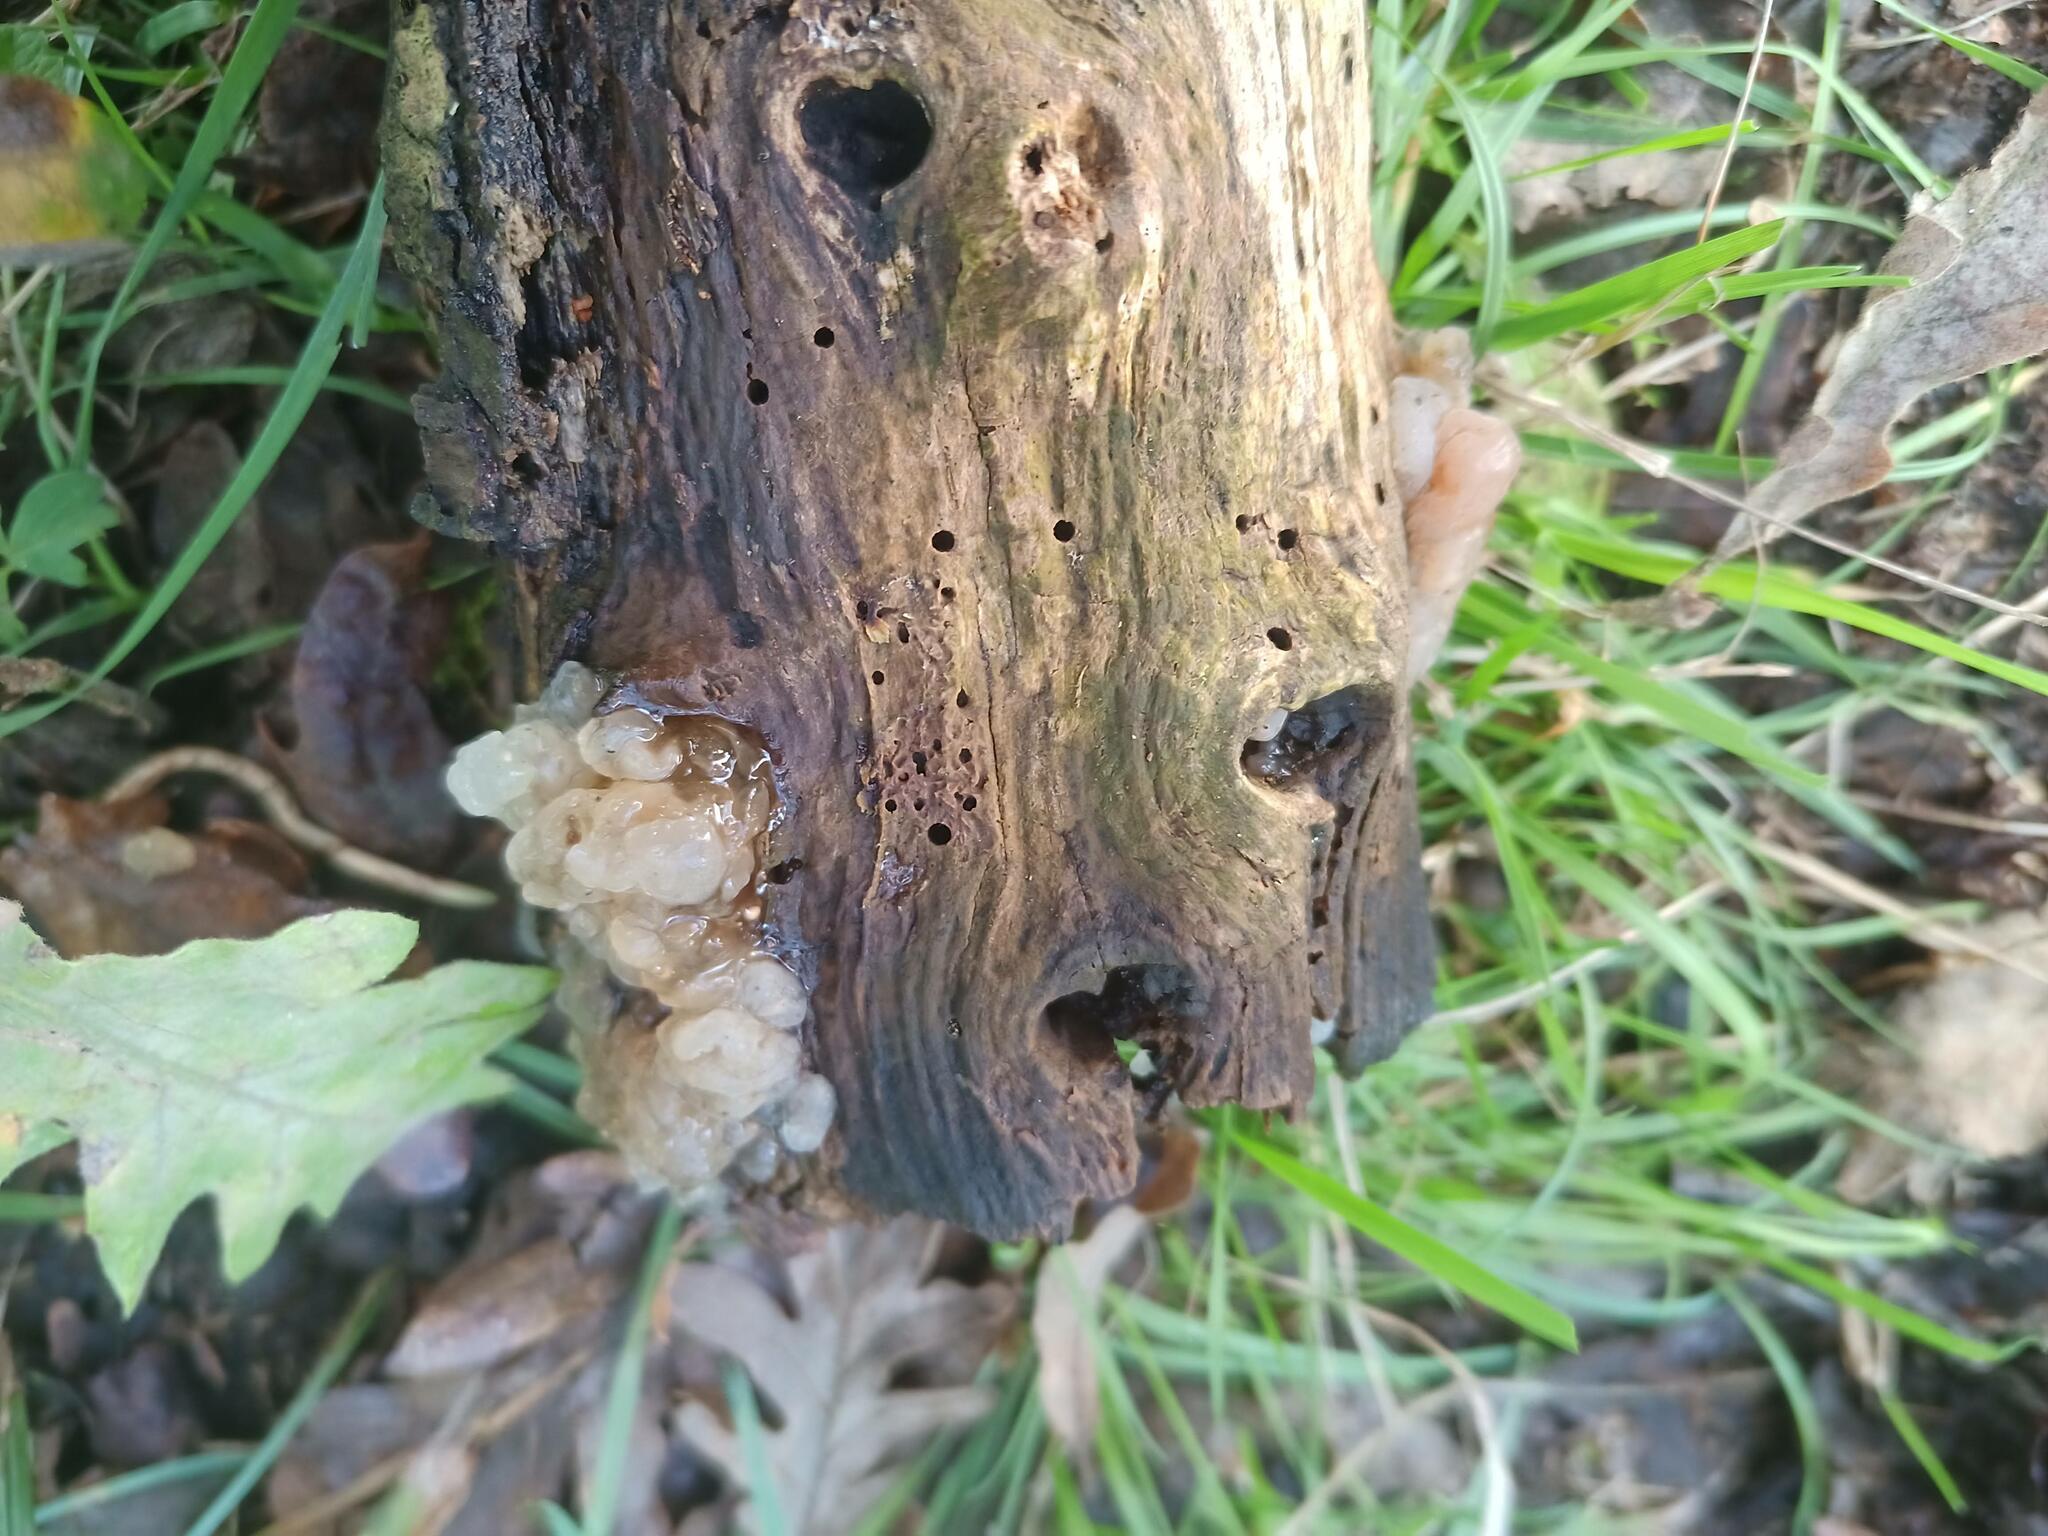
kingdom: Fungi
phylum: Basidiomycota
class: Agaricomycetes
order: Auriculariales
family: Hyaloriaceae
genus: Myxarium
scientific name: Myxarium nucleatum
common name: Crystal brain fungus
